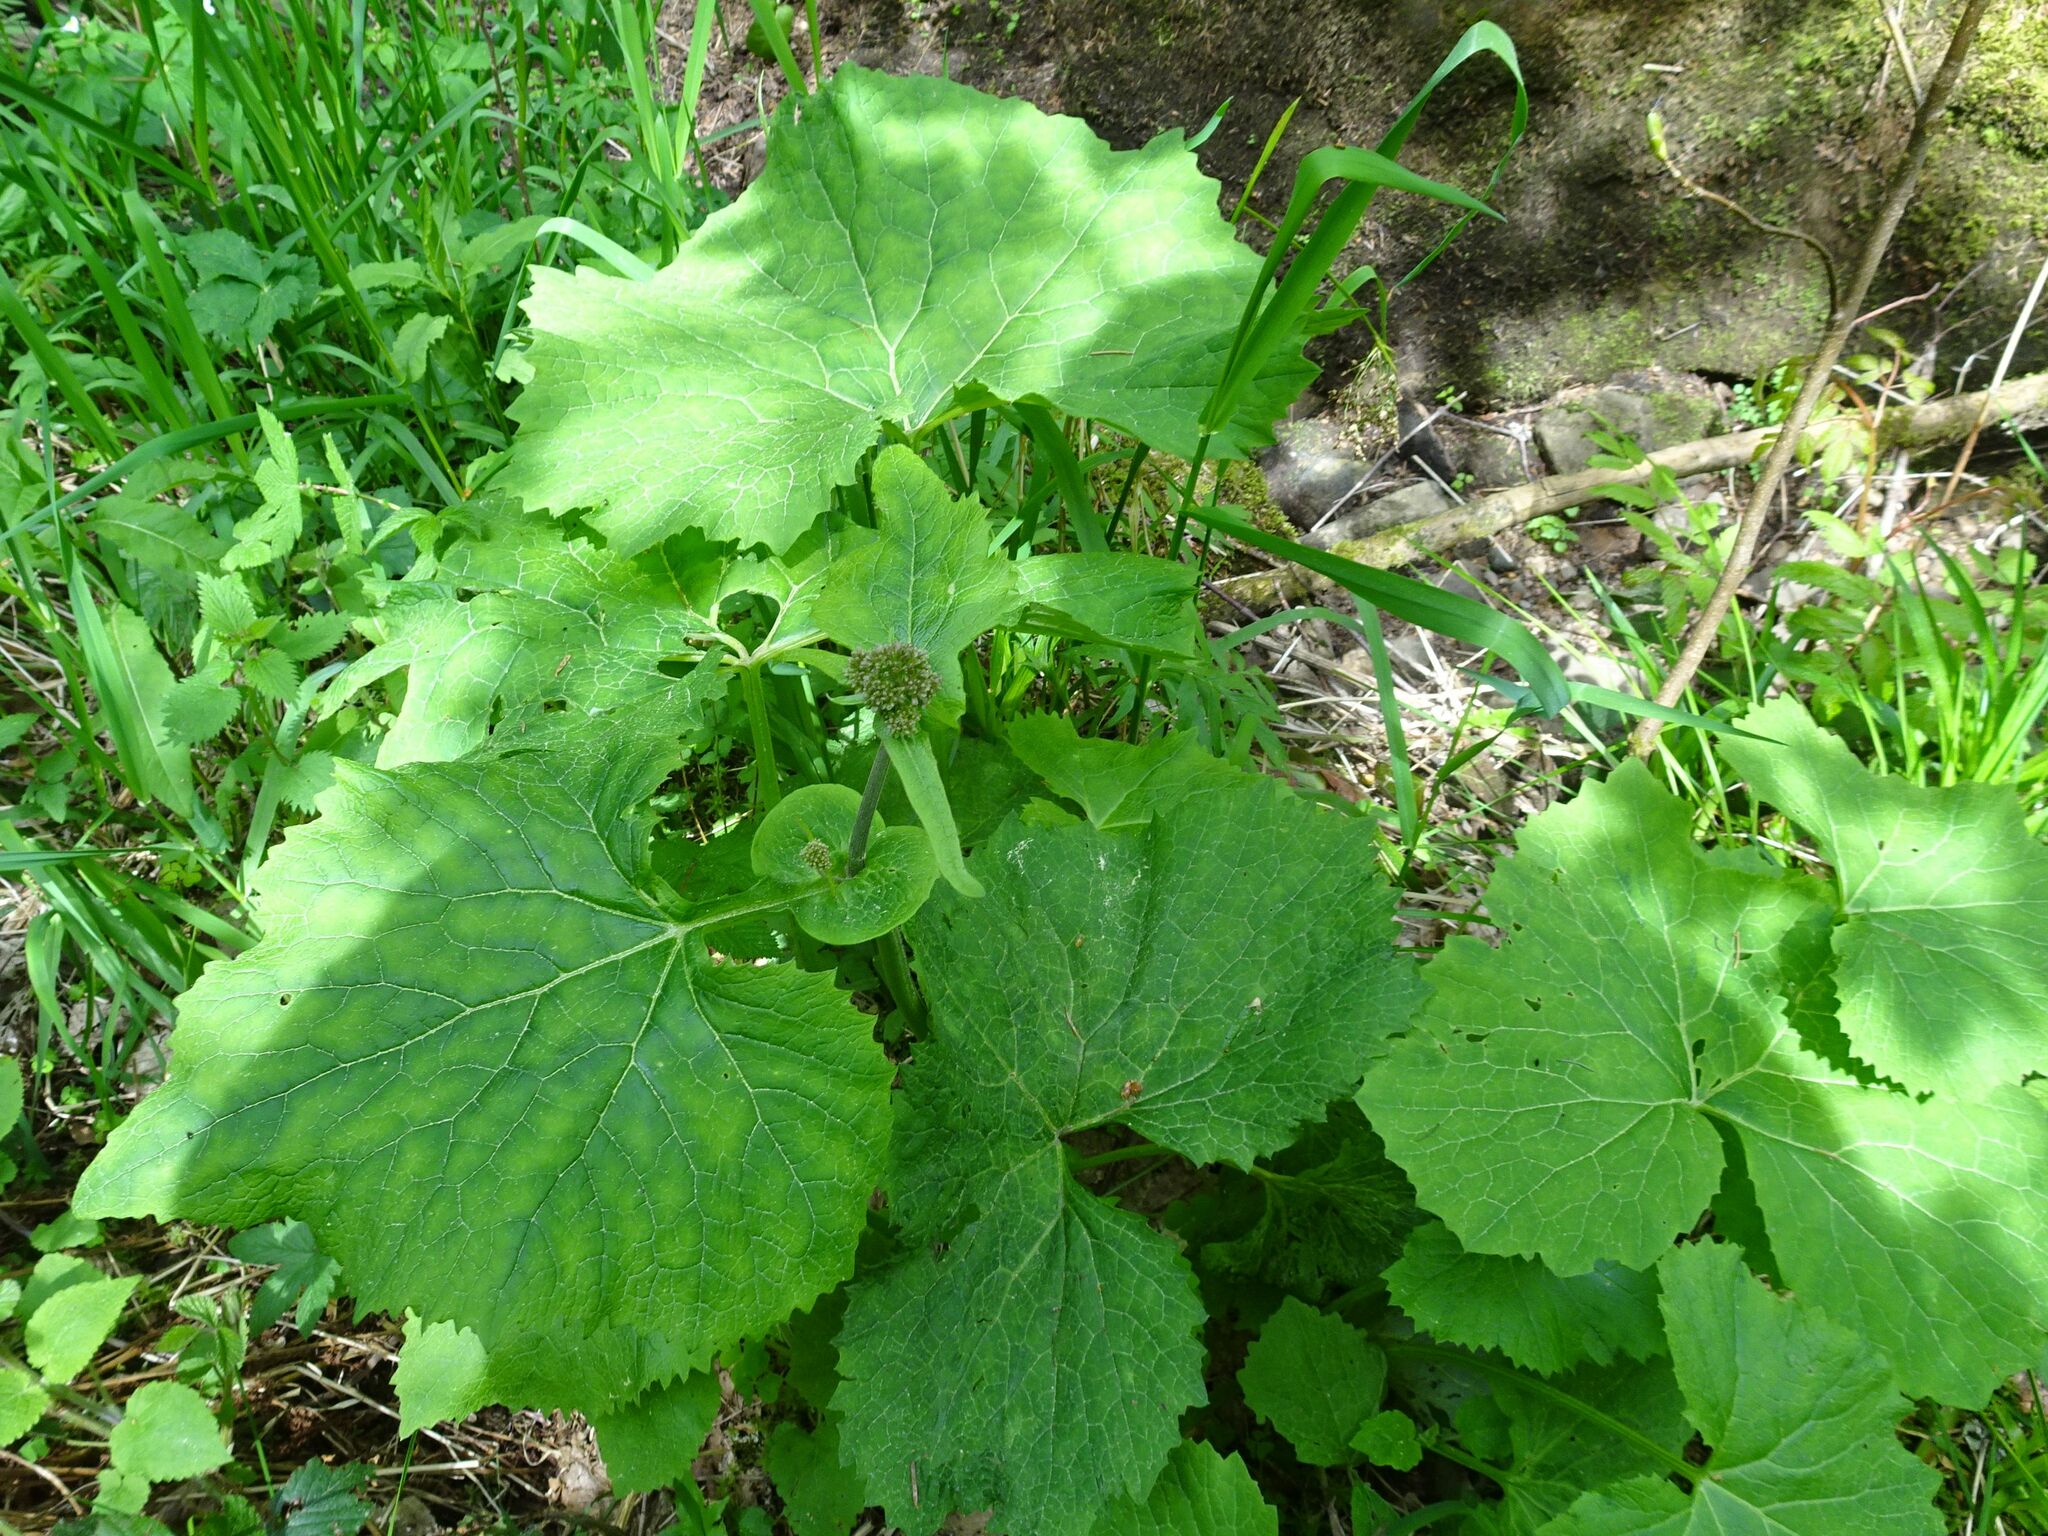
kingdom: Plantae
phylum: Tracheophyta
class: Magnoliopsida
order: Asterales
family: Asteraceae
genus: Adenostyles
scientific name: Adenostyles alliariae
